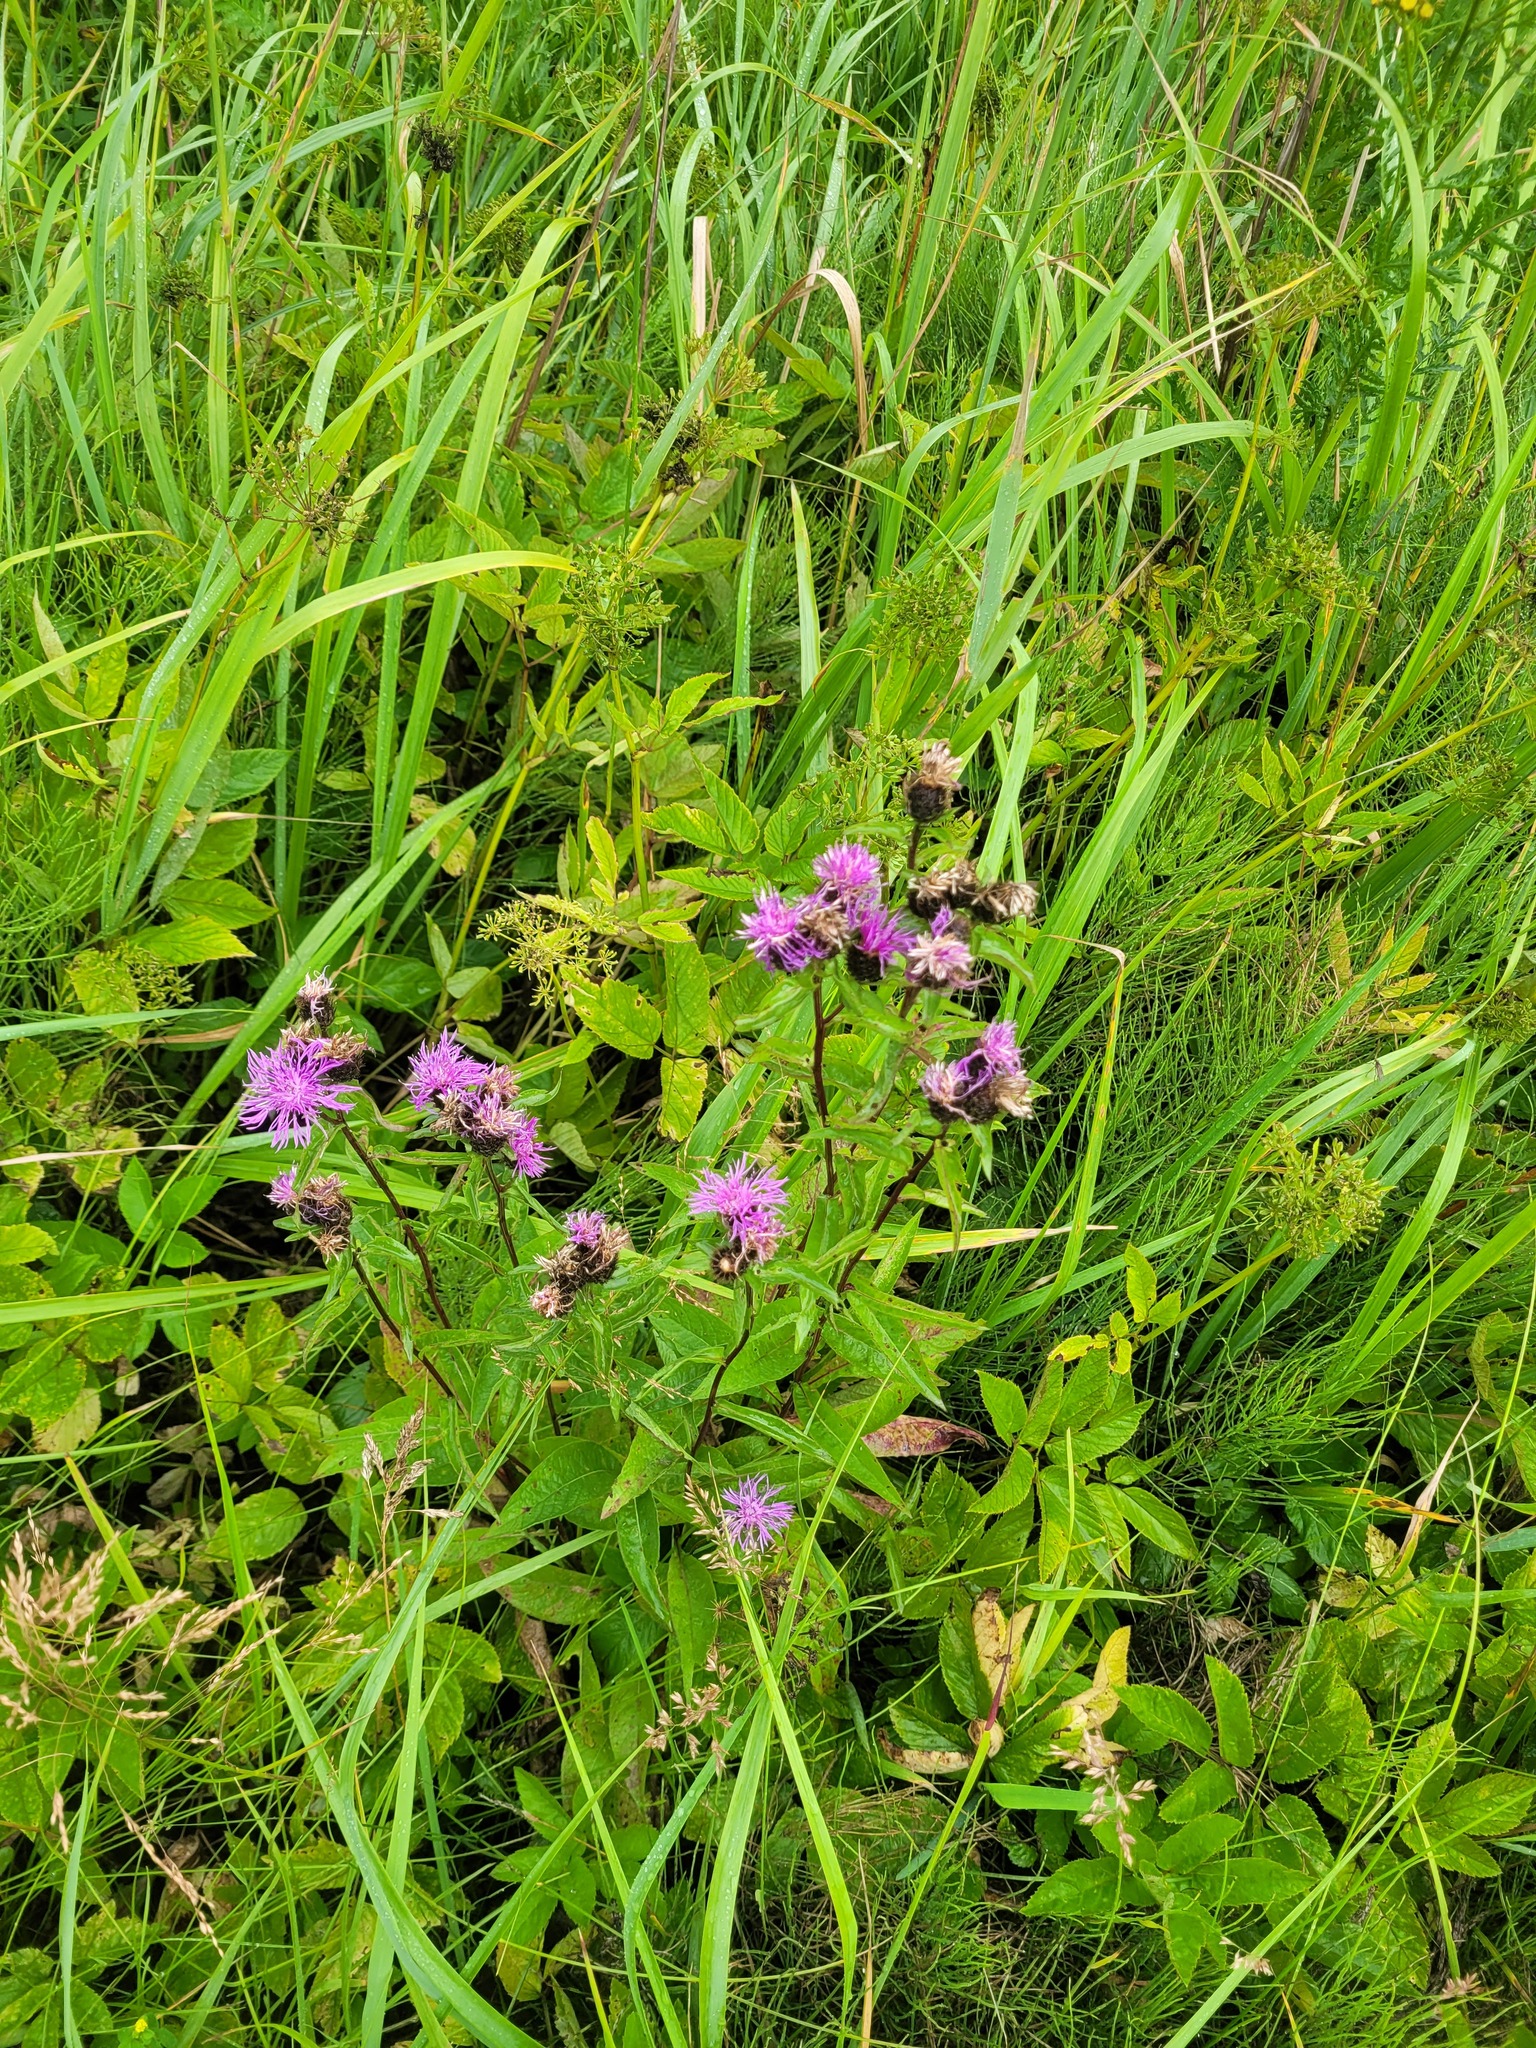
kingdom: Plantae
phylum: Tracheophyta
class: Magnoliopsida
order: Asterales
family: Asteraceae
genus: Centaurea
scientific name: Centaurea phrygia
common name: Wig knapweed
